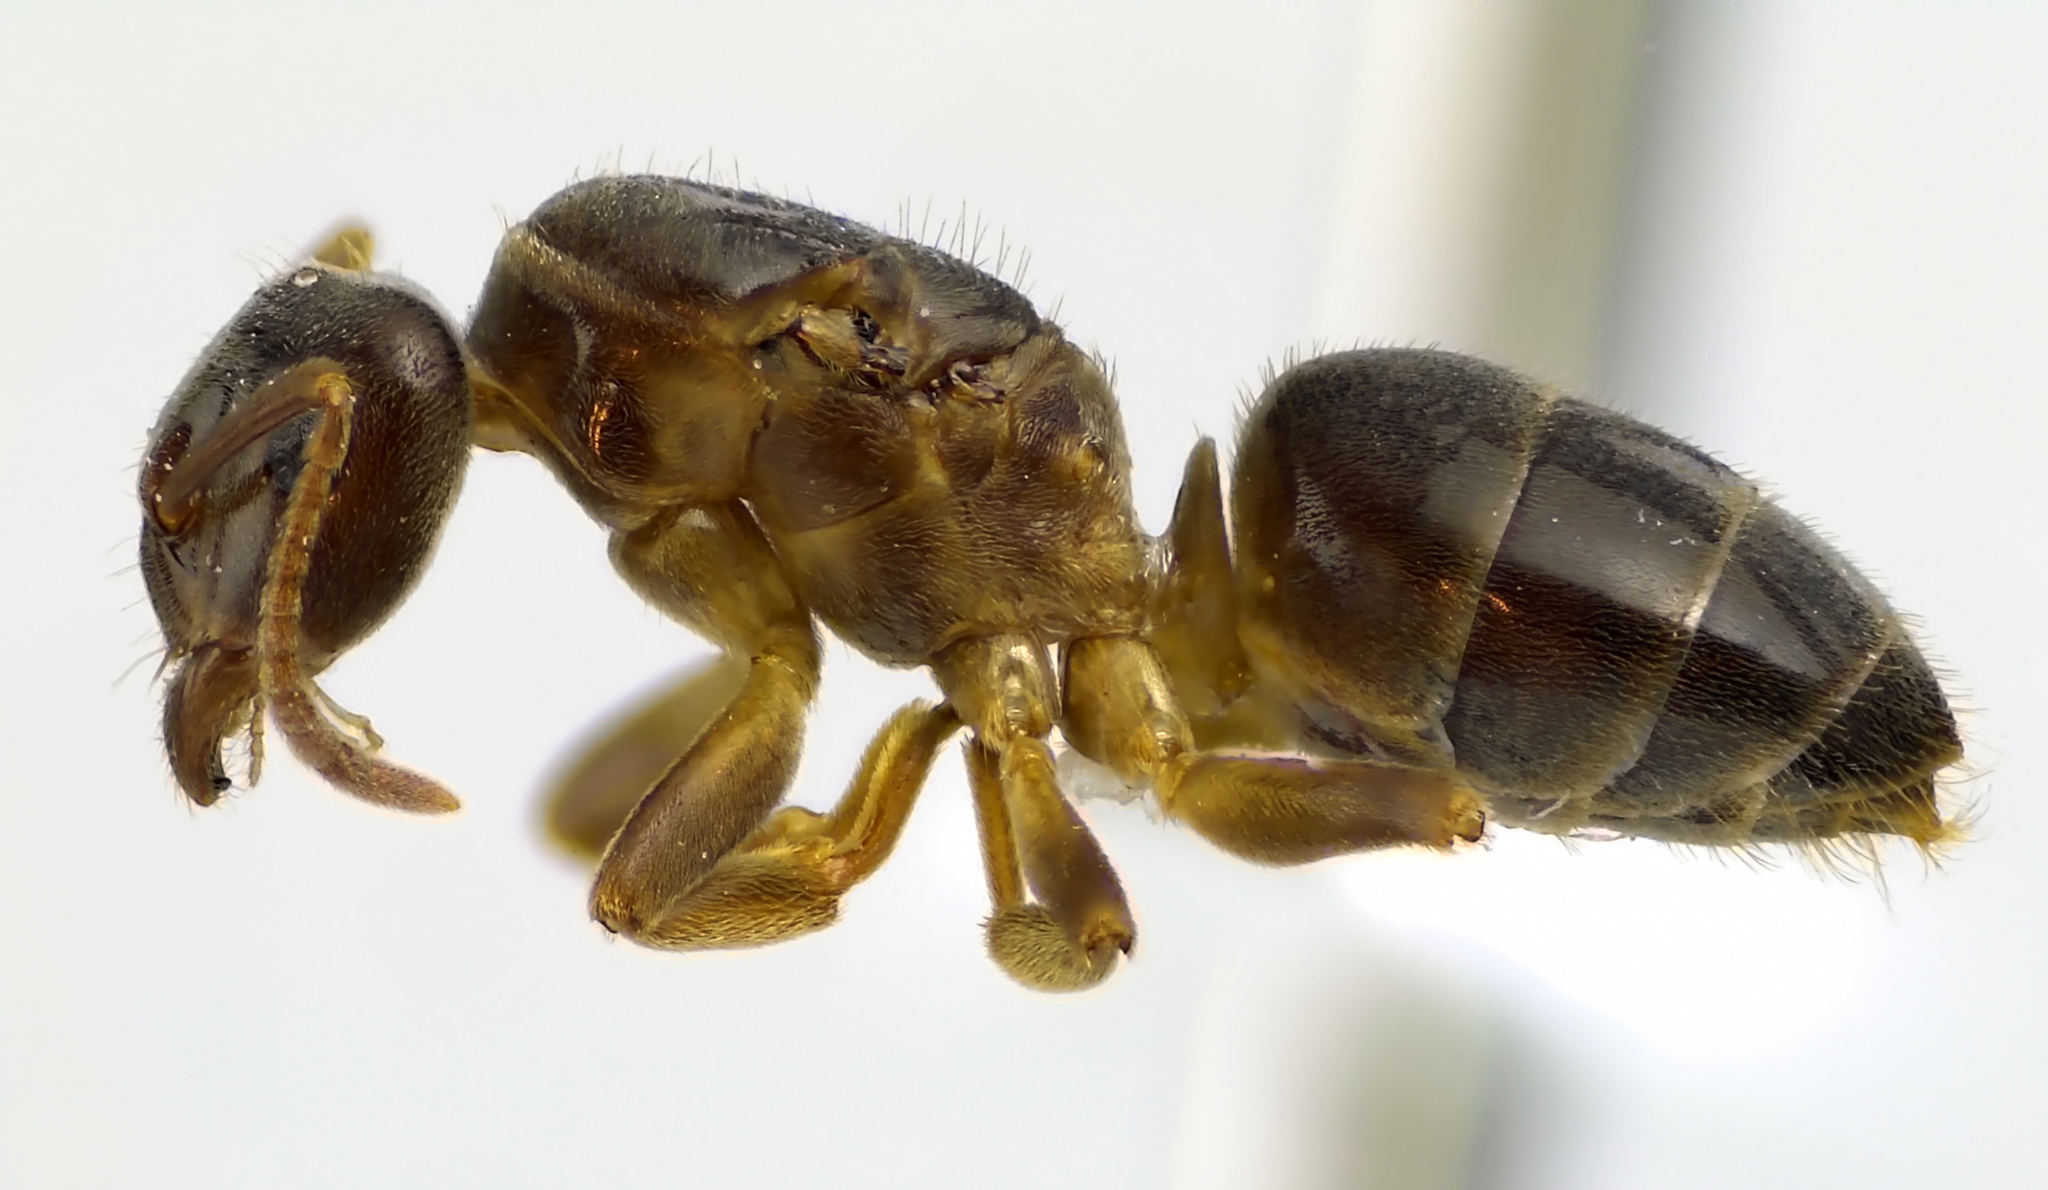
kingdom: Animalia
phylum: Arthropoda
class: Insecta
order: Hymenoptera
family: Formicidae
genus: Lasius
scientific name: Lasius aphidicola
